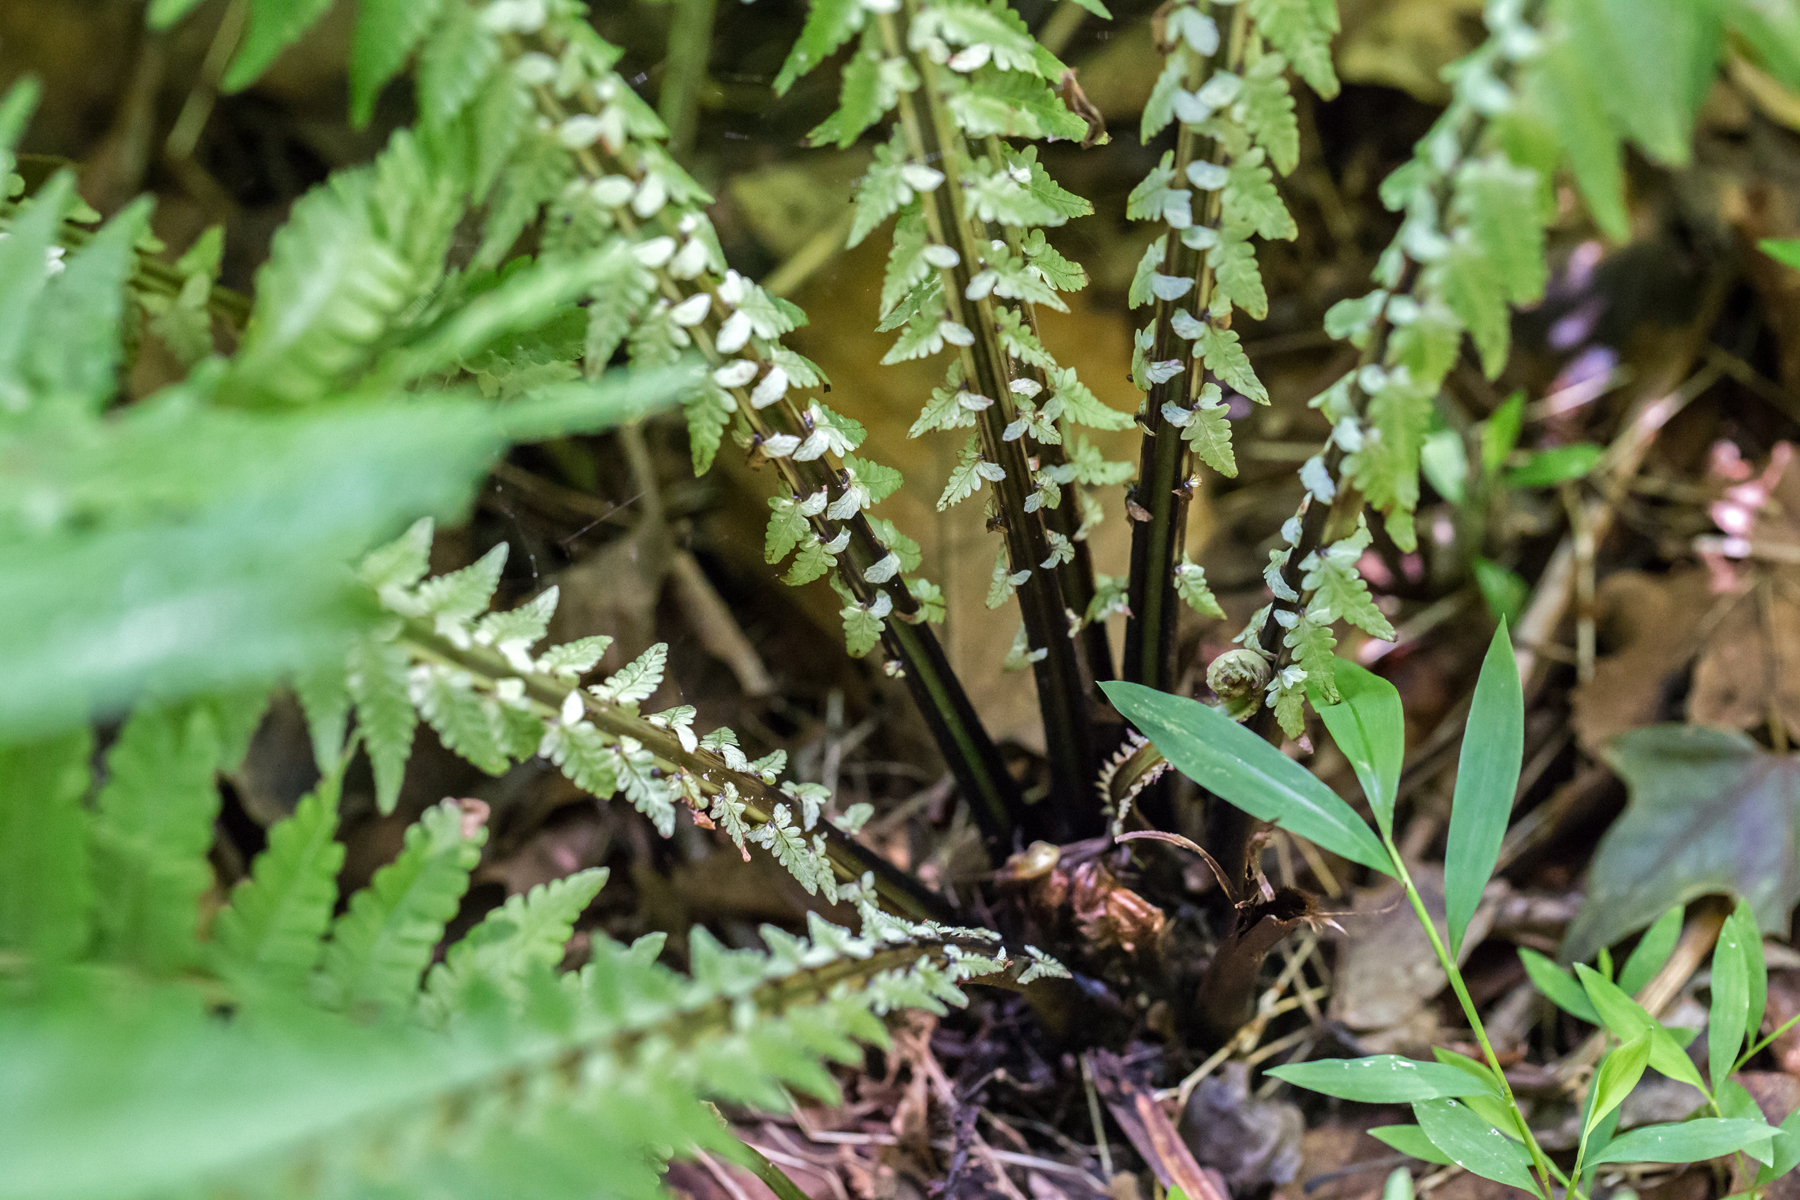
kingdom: Plantae
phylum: Tracheophyta
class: Polypodiopsida
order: Polypodiales
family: Onocleaceae
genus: Matteuccia
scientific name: Matteuccia struthiopteris
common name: Ostrich fern
